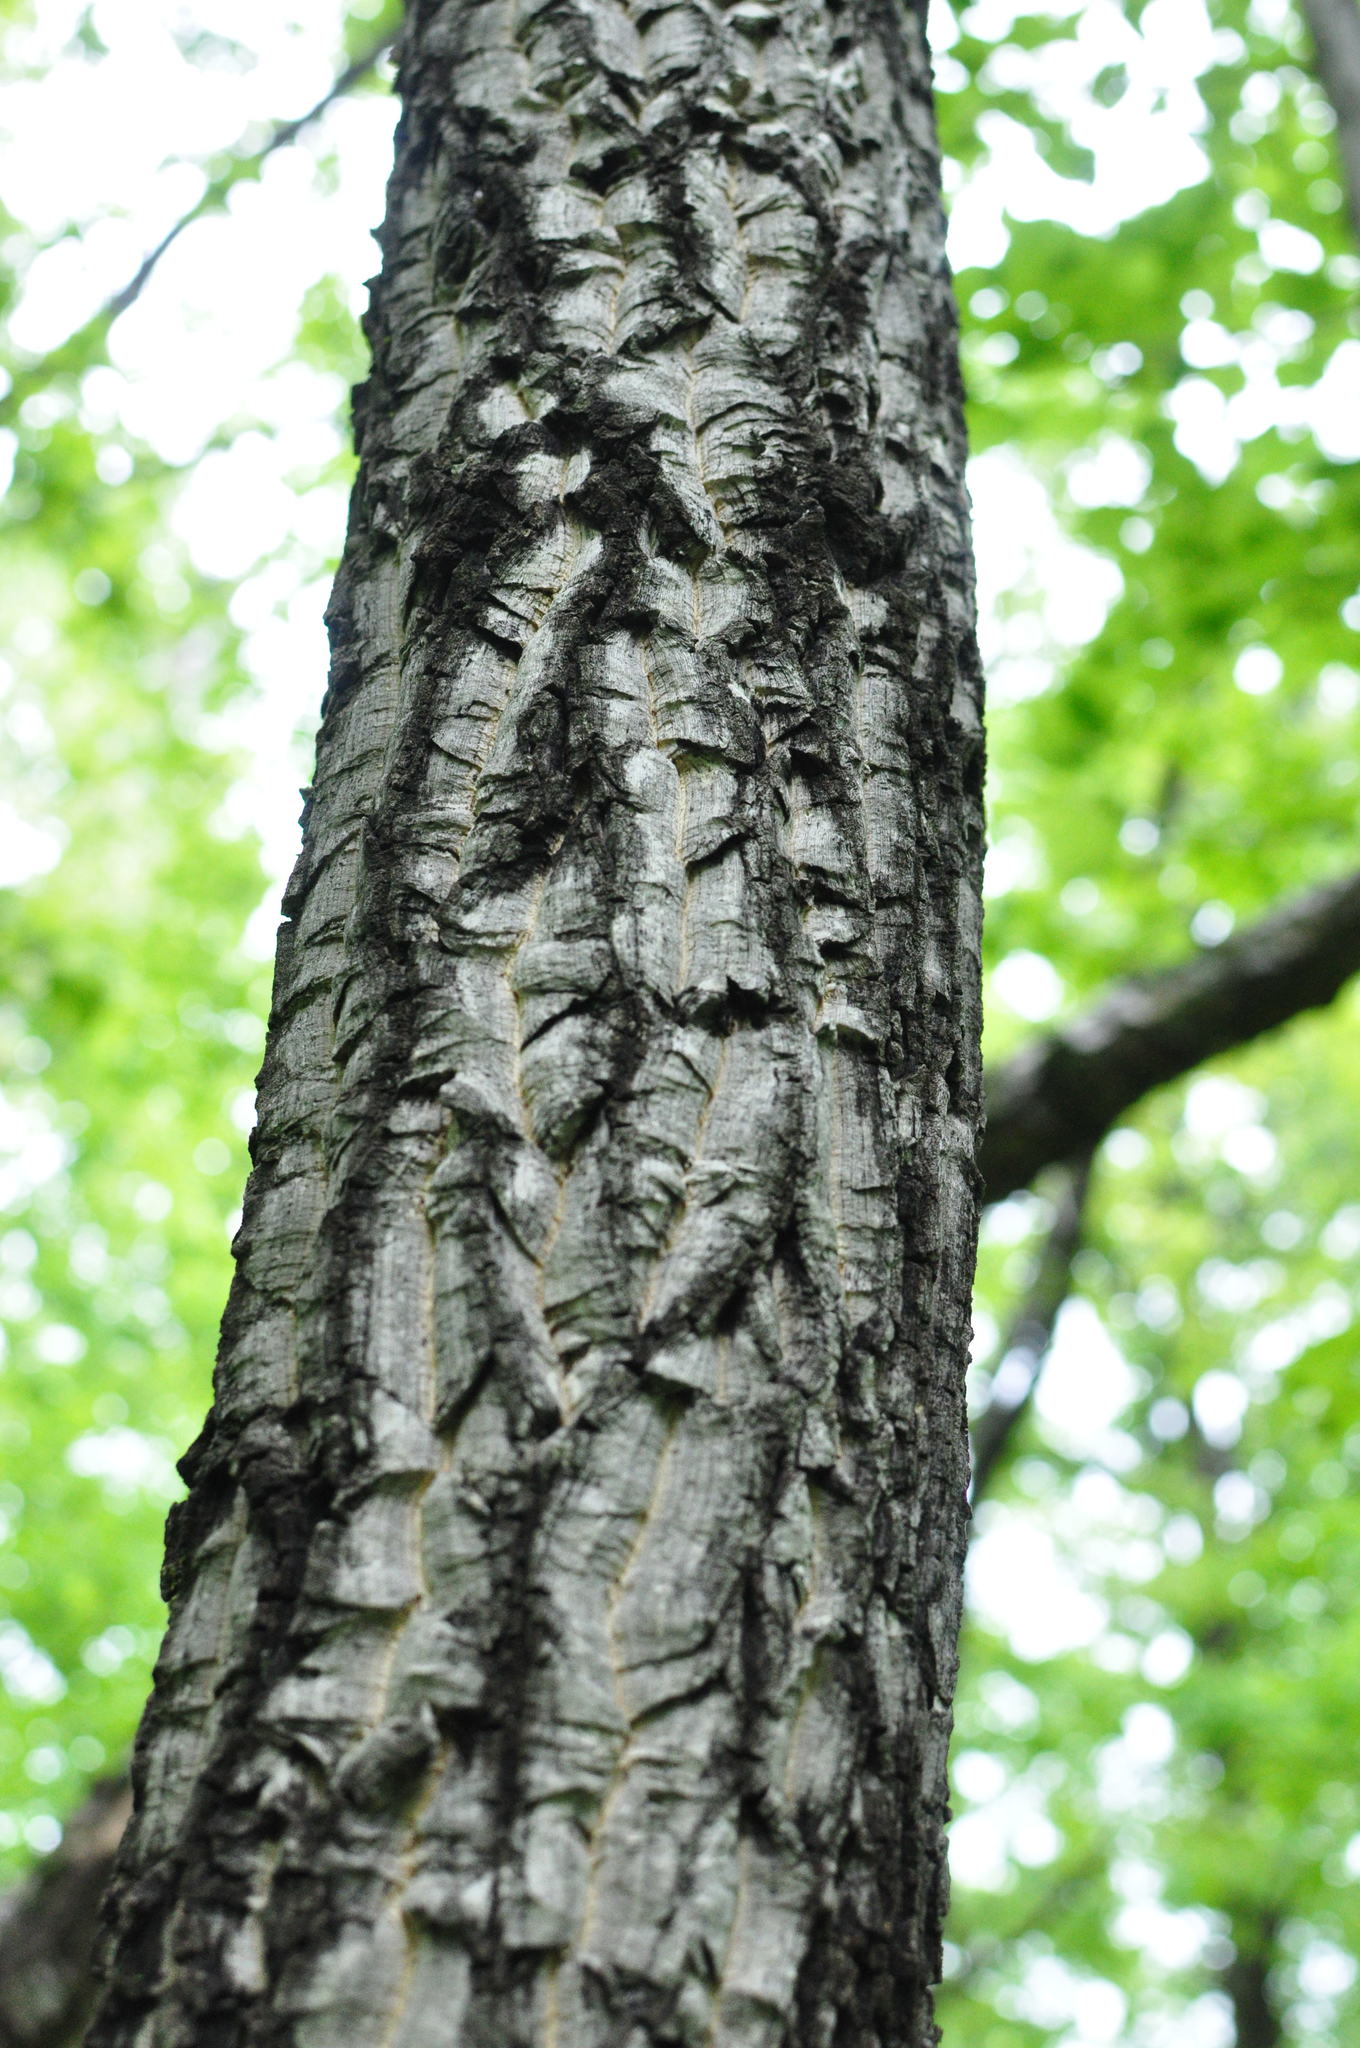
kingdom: Plantae
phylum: Tracheophyta
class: Magnoliopsida
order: Sapindales
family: Rutaceae
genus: Phellodendron
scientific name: Phellodendron amurense
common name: Amur corktree
